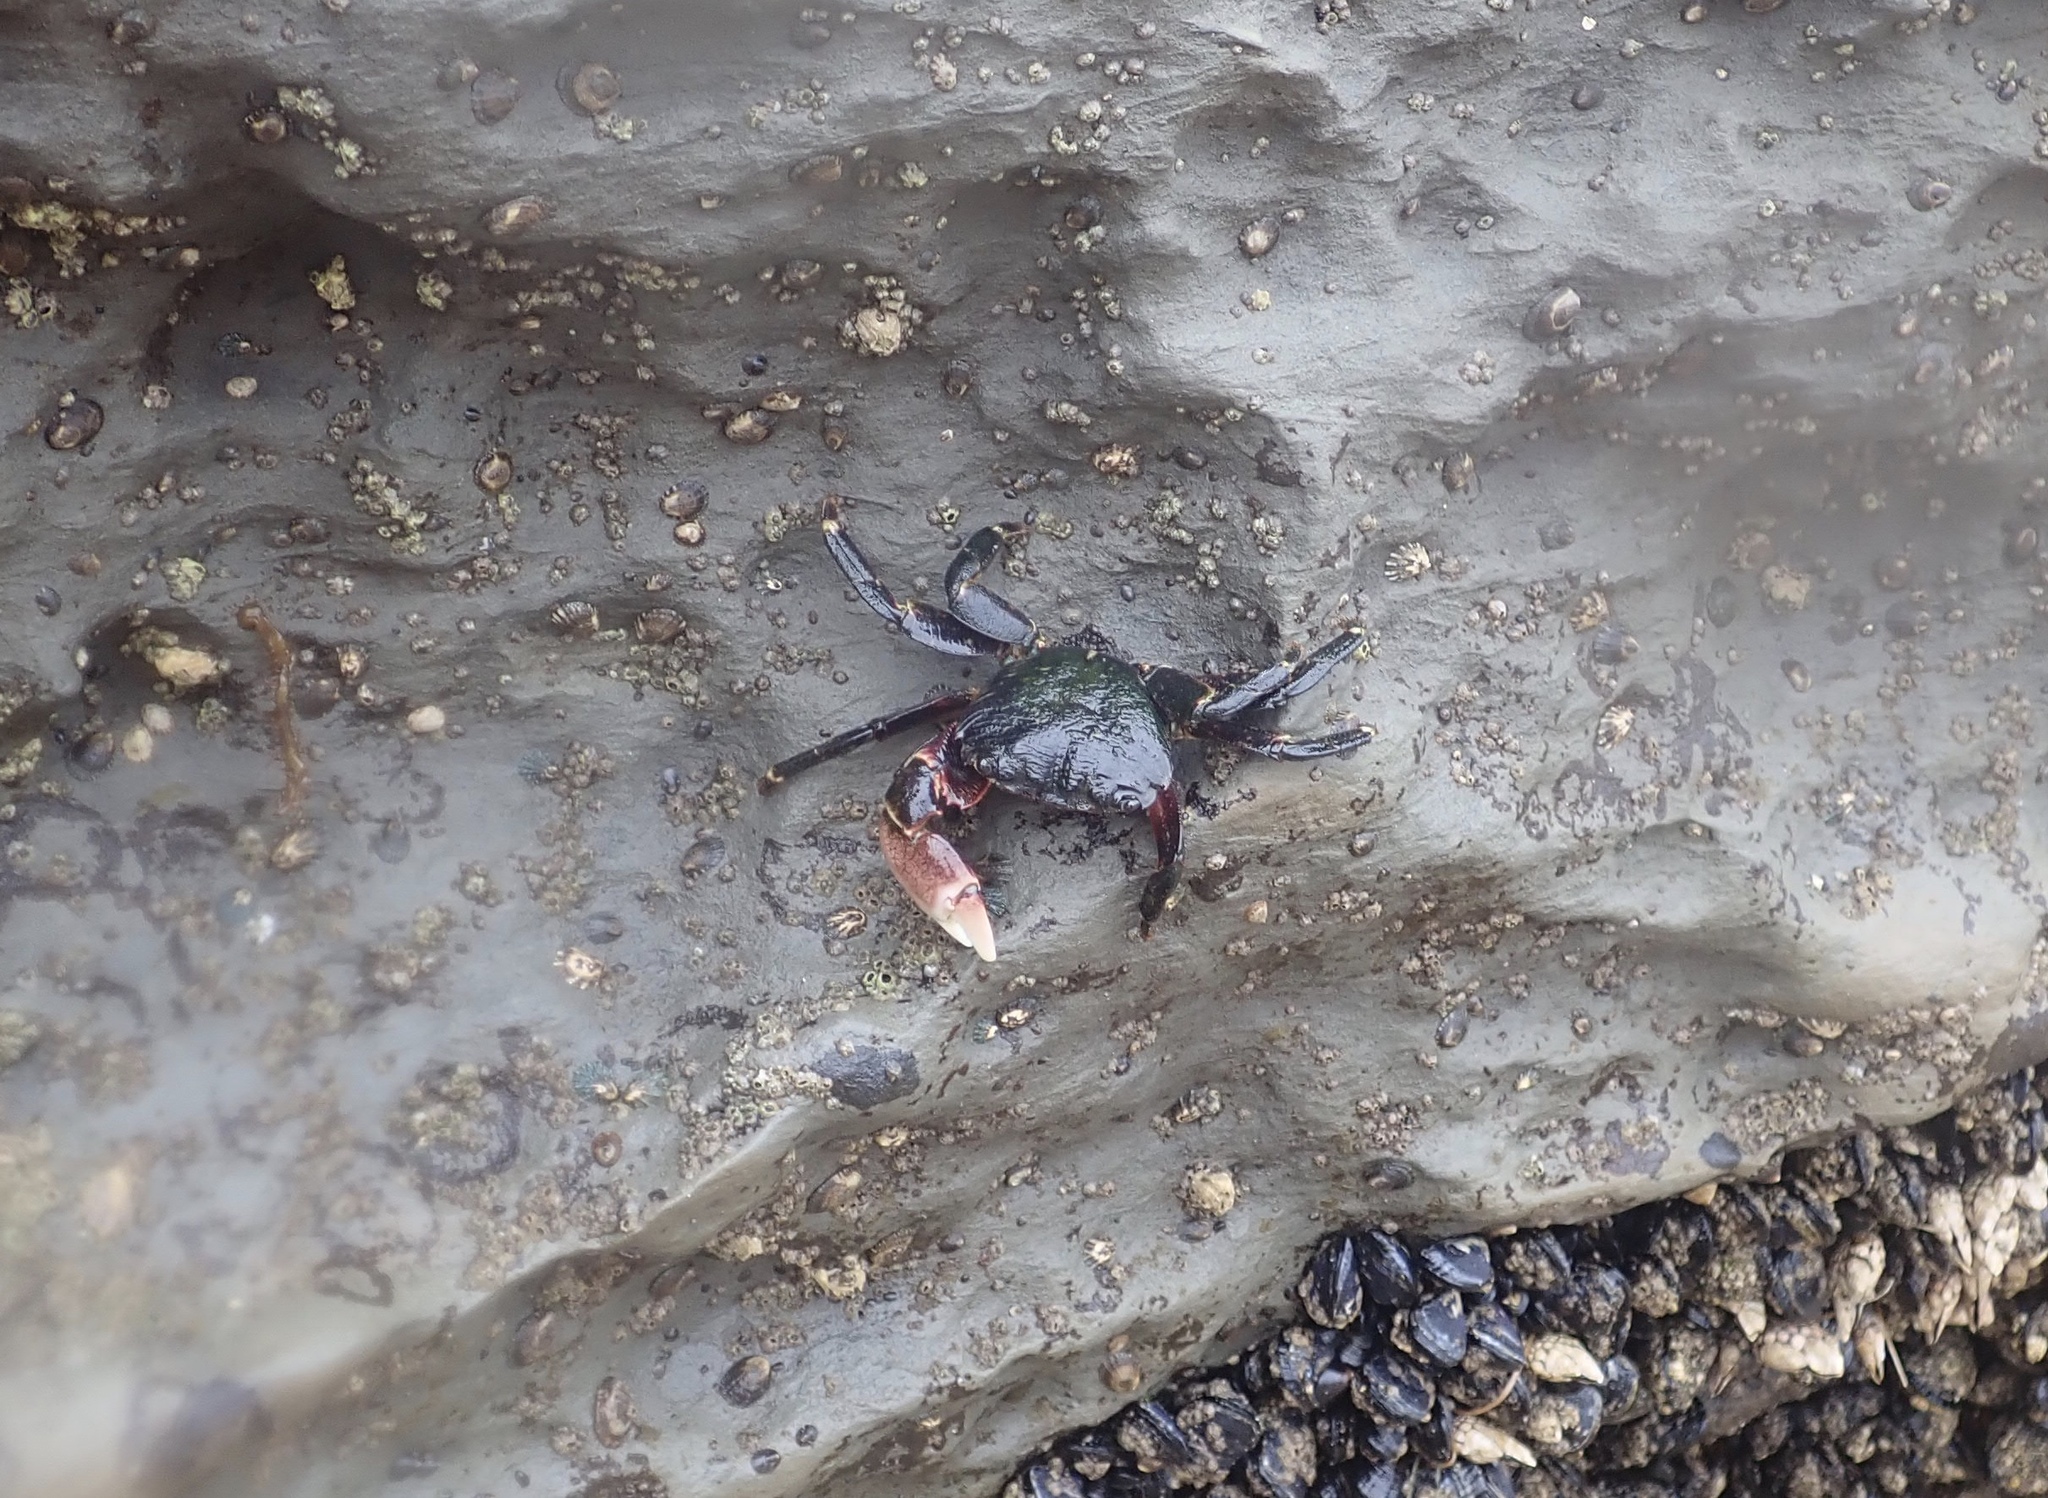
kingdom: Animalia
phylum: Arthropoda
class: Malacostraca
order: Decapoda
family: Grapsidae
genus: Pachygrapsus
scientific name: Pachygrapsus crassipes
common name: Striped shore crab
